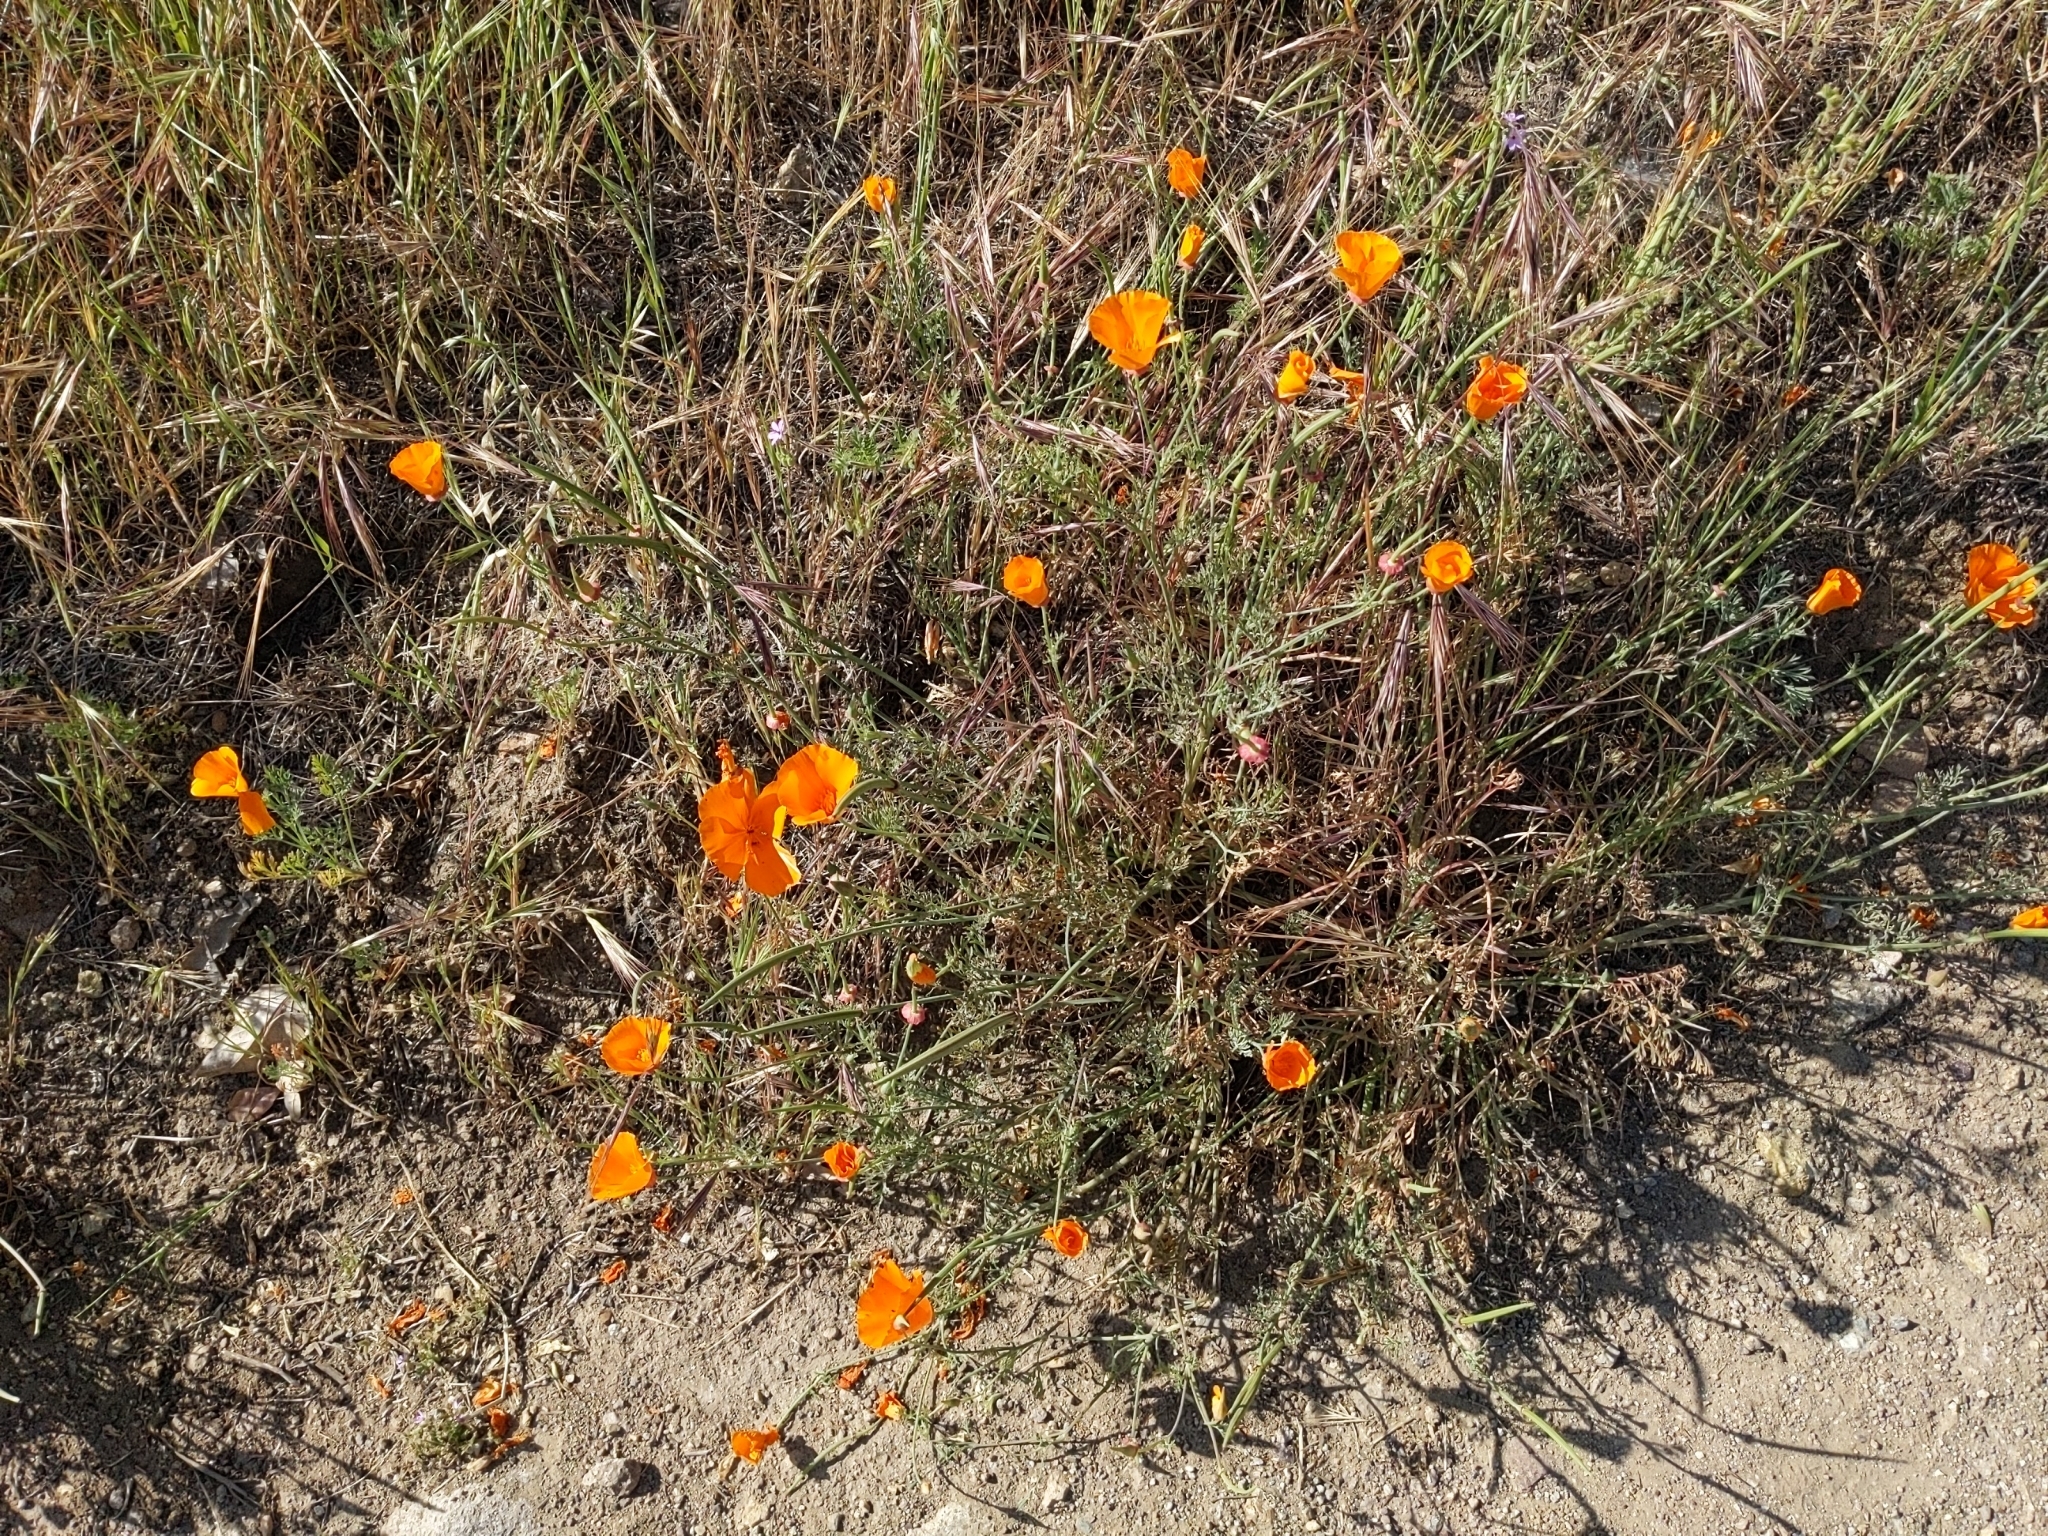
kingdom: Plantae
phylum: Tracheophyta
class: Magnoliopsida
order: Ranunculales
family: Papaveraceae
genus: Eschscholzia
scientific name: Eschscholzia californica
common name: California poppy
